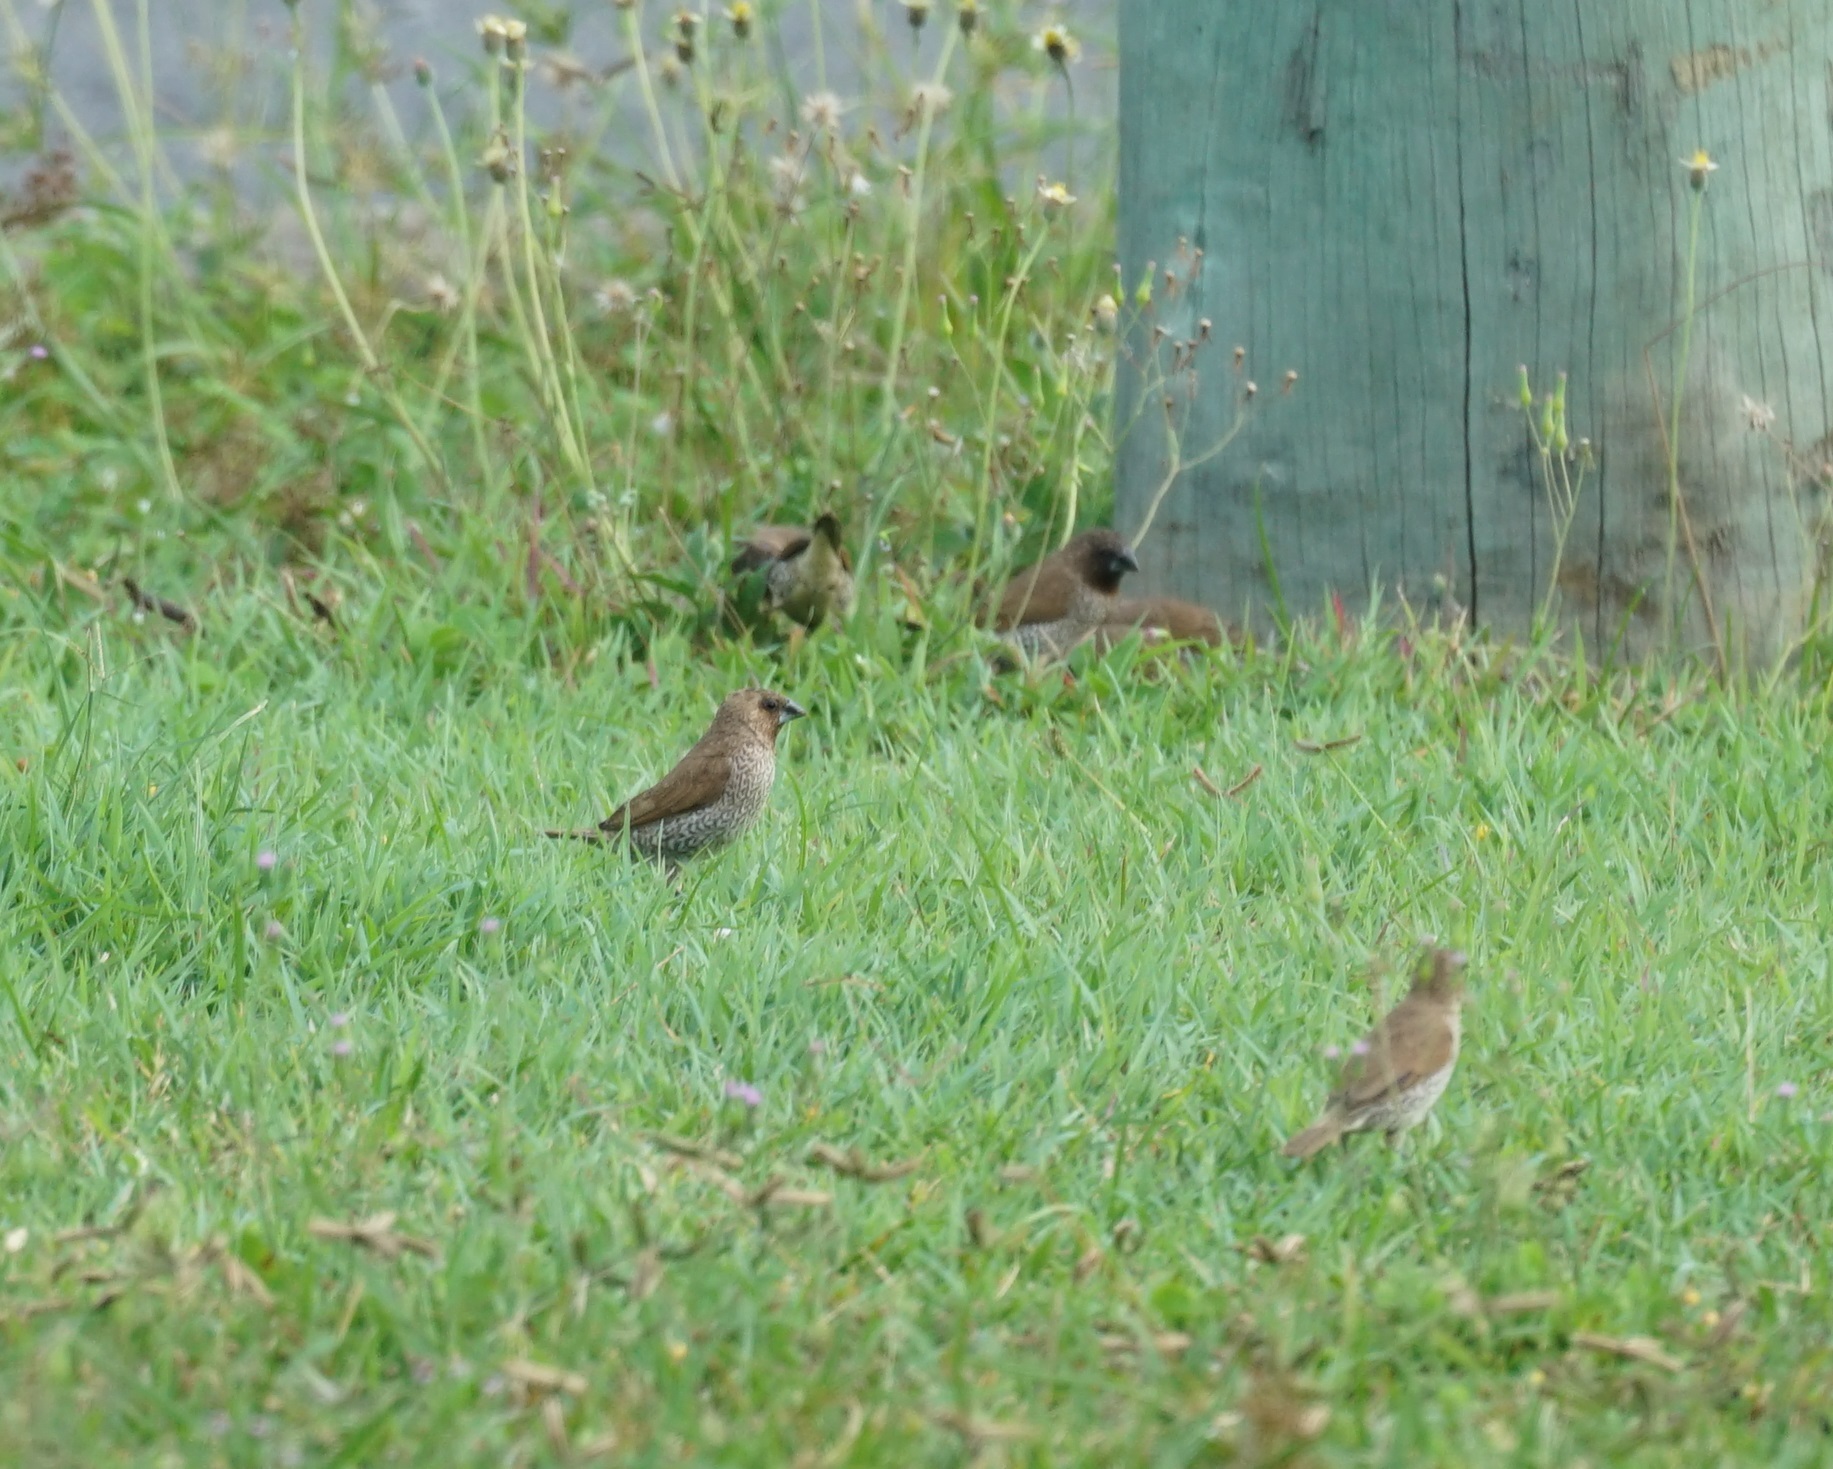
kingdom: Animalia
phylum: Chordata
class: Aves
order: Passeriformes
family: Estrildidae
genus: Lonchura
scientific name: Lonchura punctulata
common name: Scaly-breasted munia
